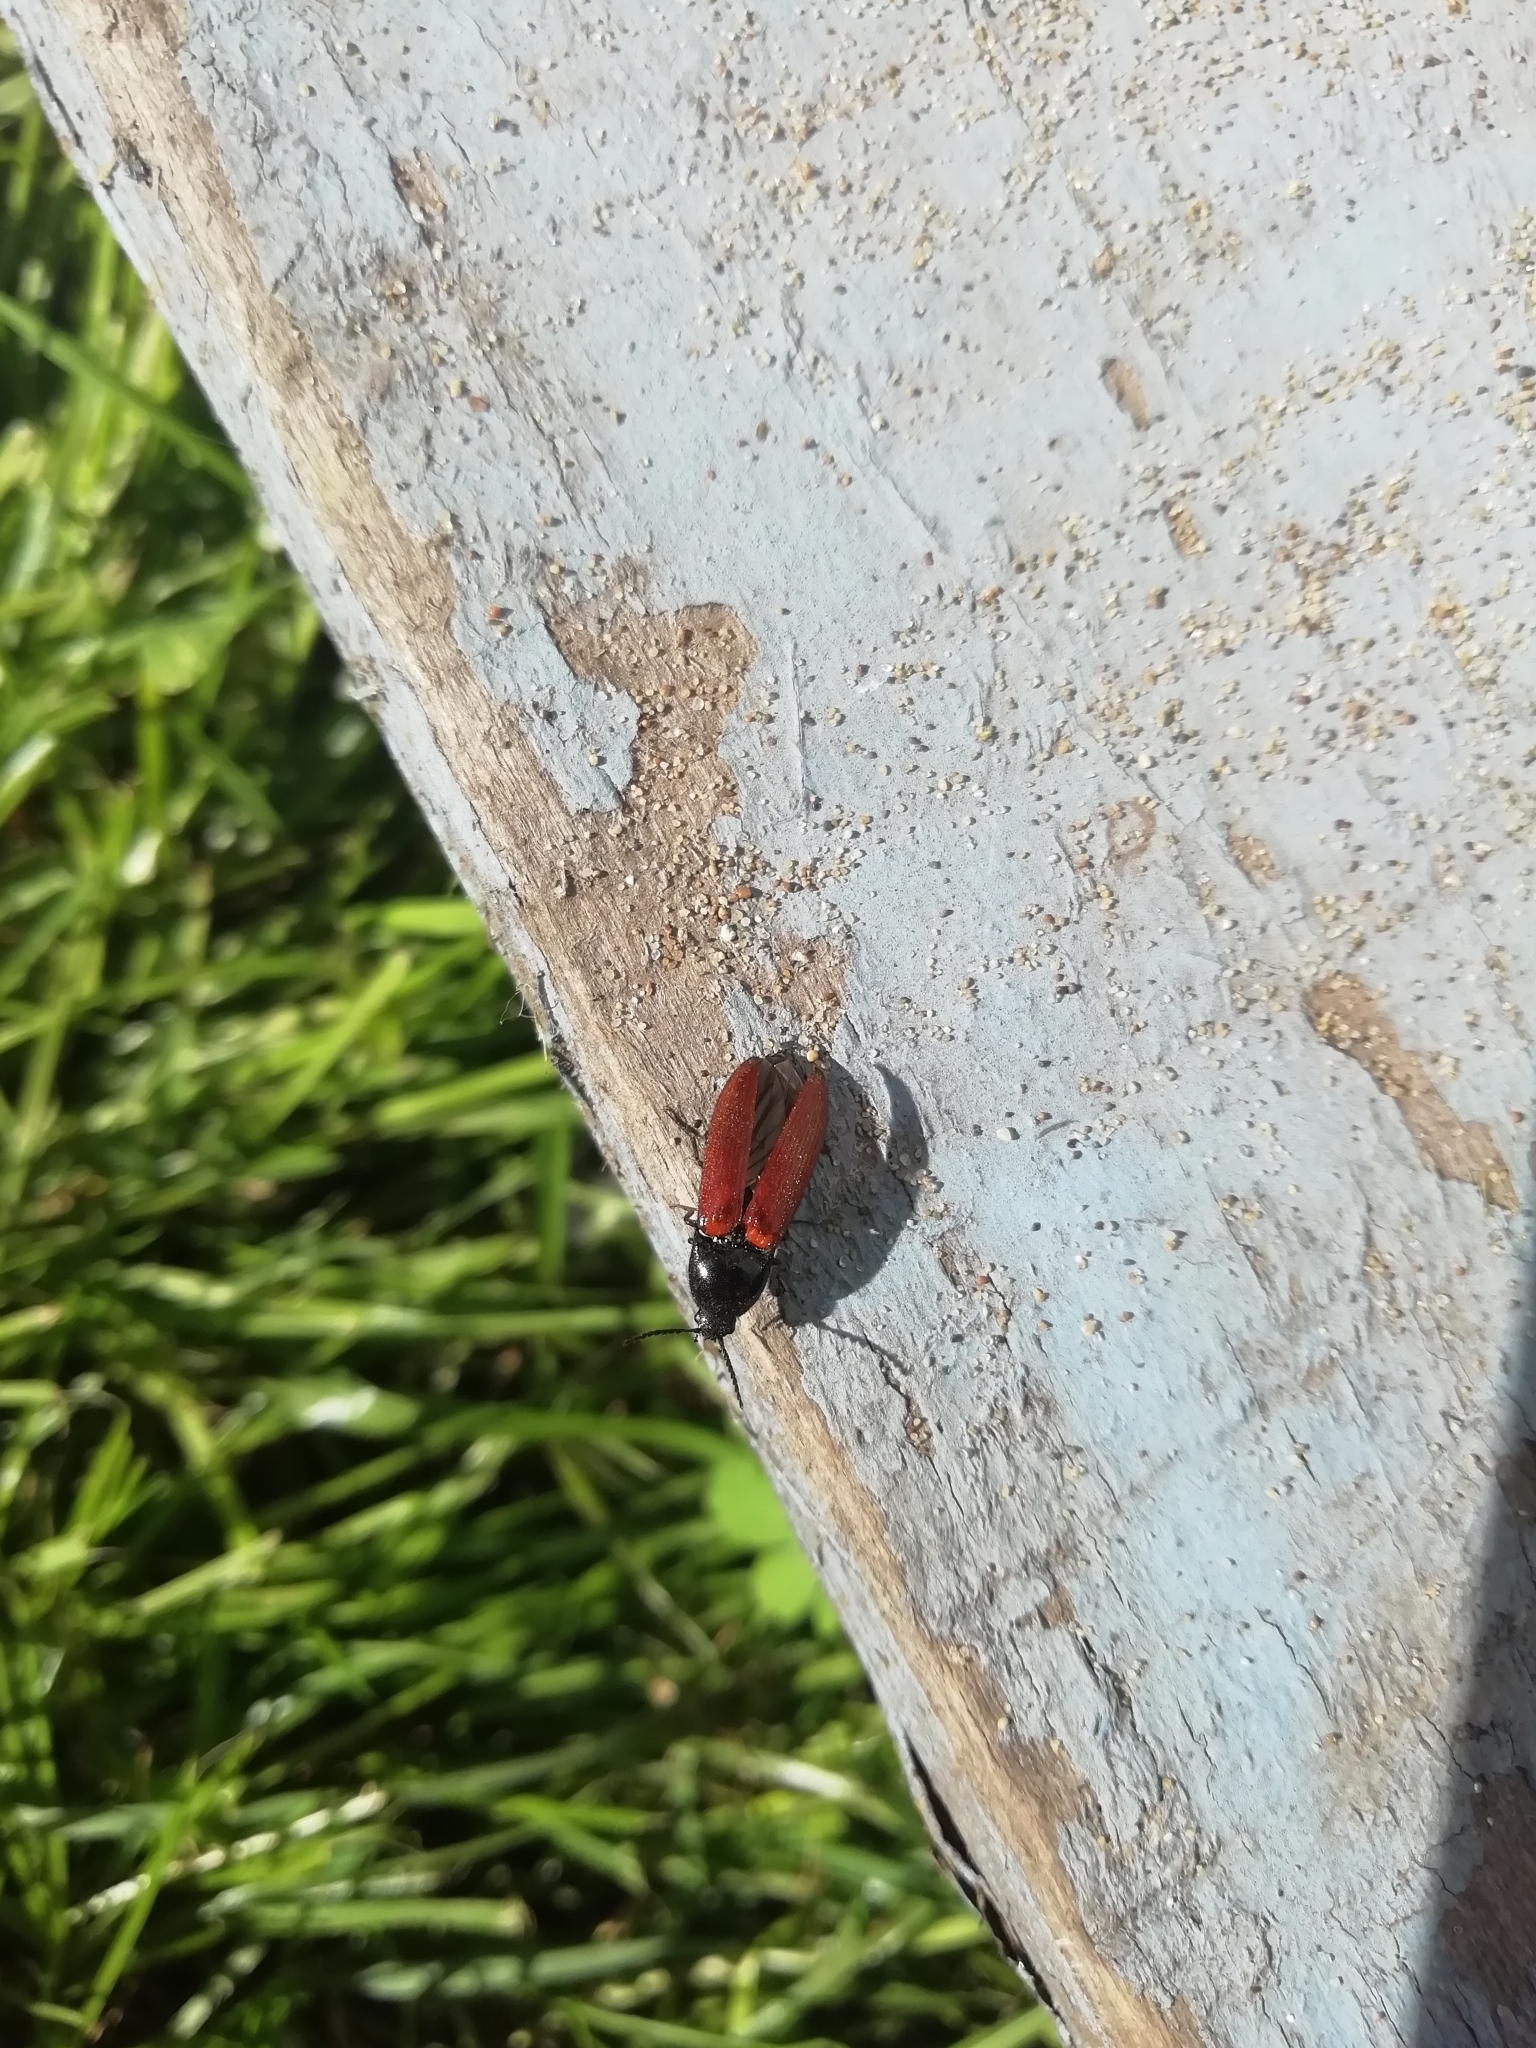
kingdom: Animalia
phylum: Arthropoda
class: Insecta
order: Coleoptera
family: Elateridae
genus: Ampedus
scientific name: Ampedus sanguineus
